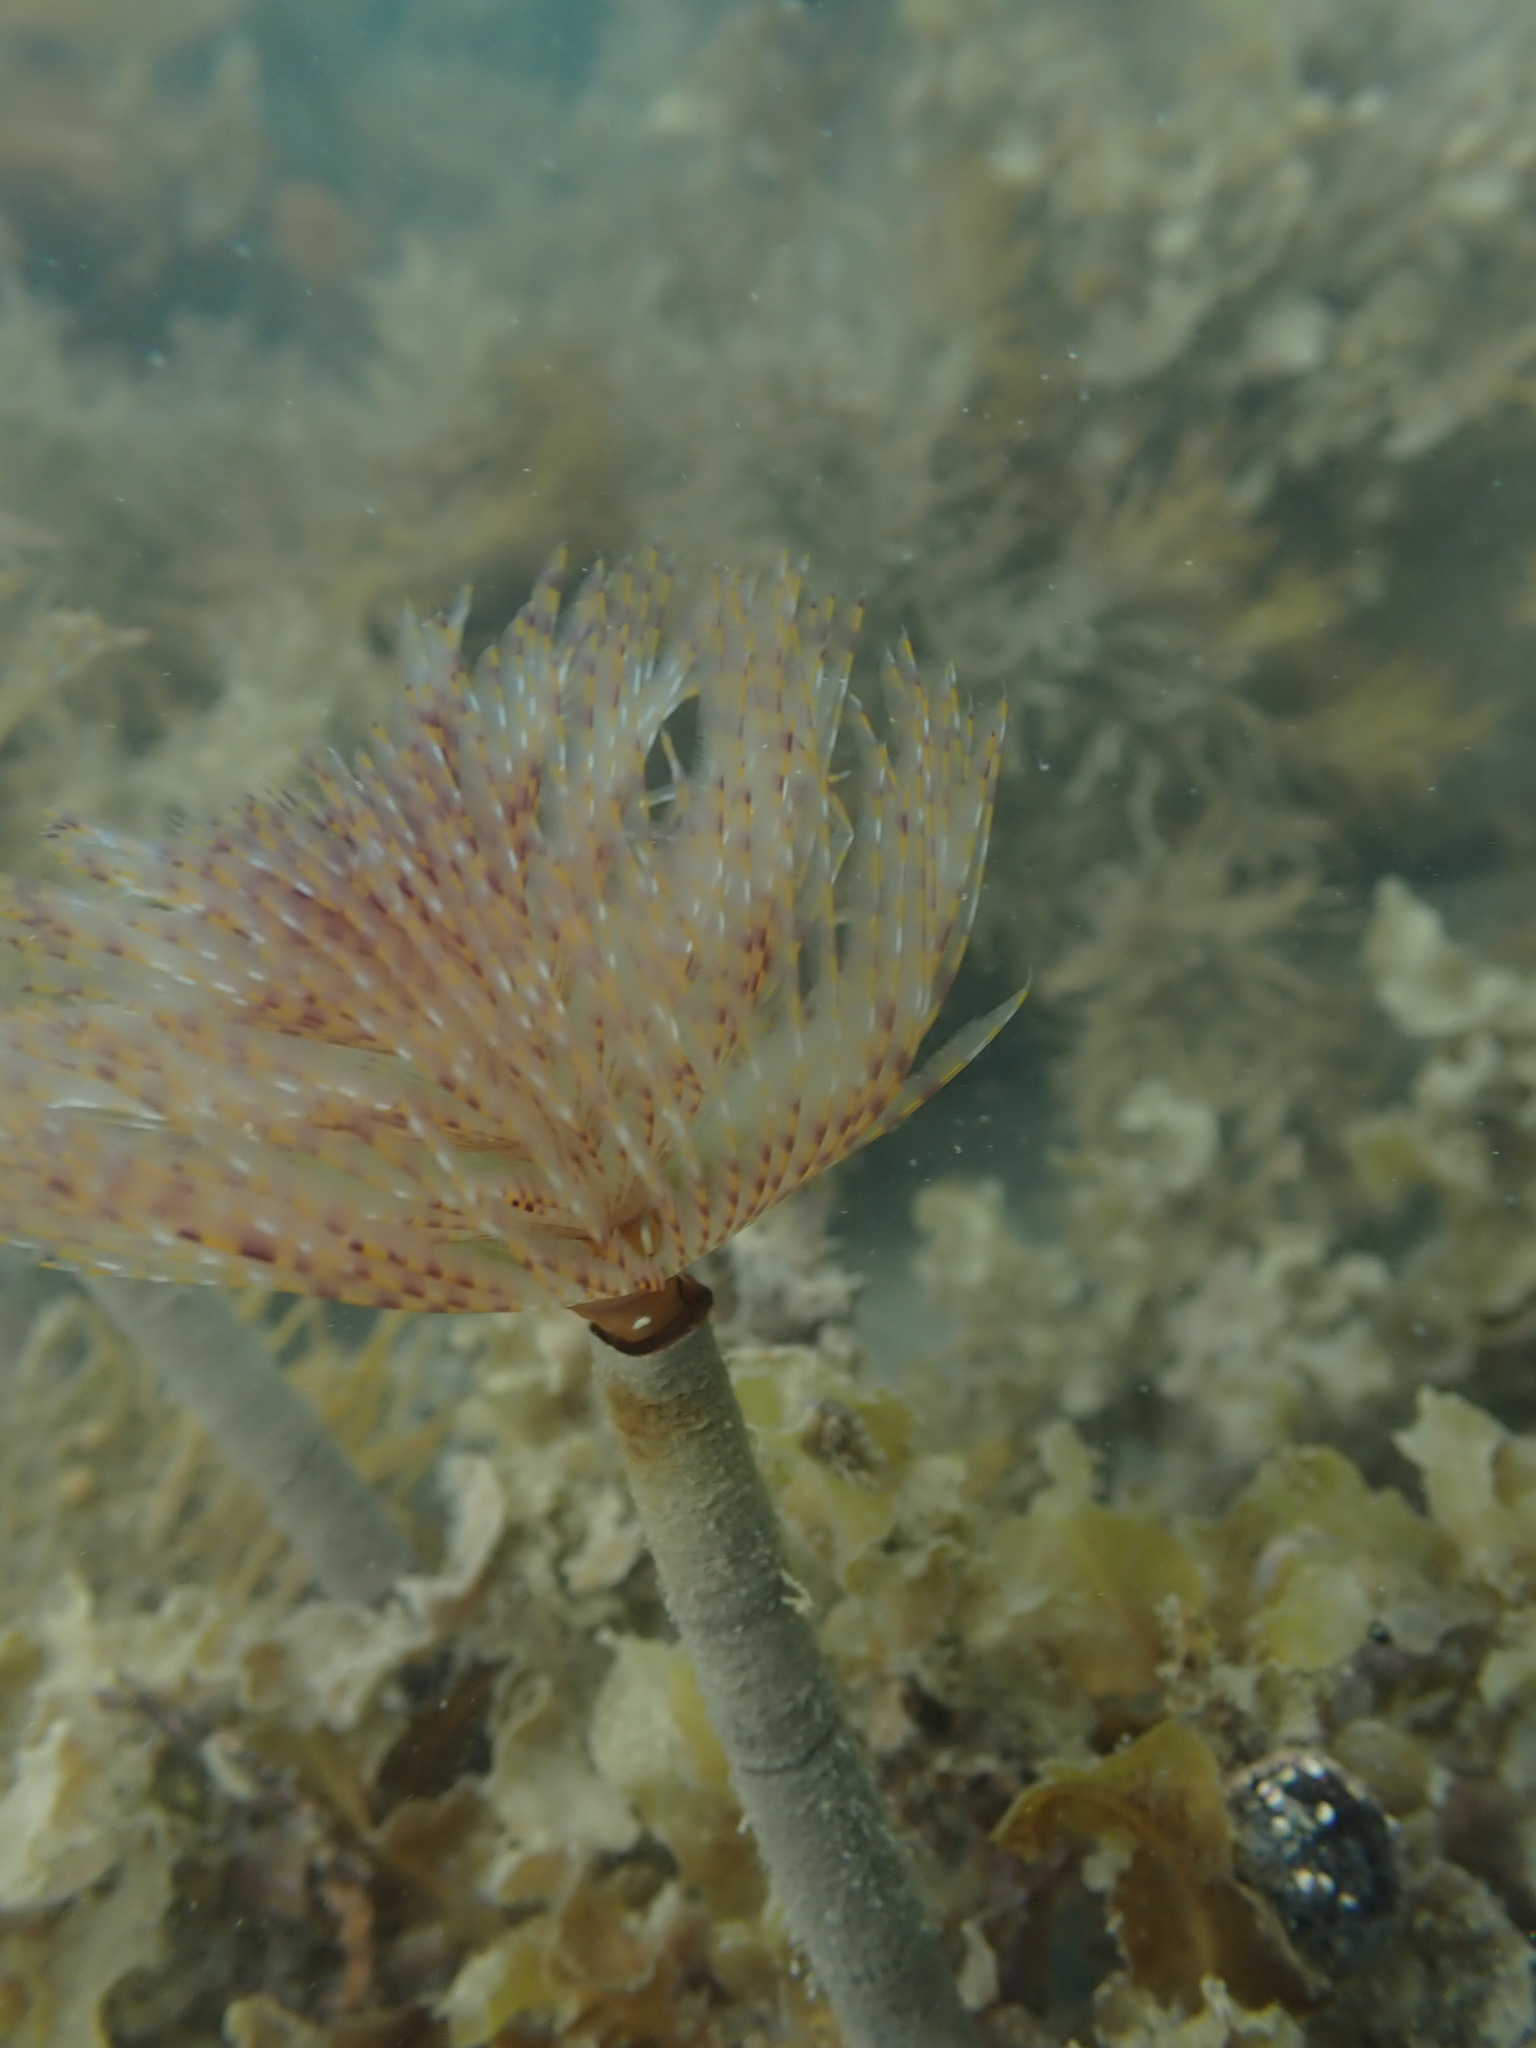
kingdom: Animalia
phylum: Annelida
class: Polychaeta
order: Sabellida
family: Sabellidae
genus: Sabella
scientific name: Sabella spallanzanii
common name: Feather duster worm
